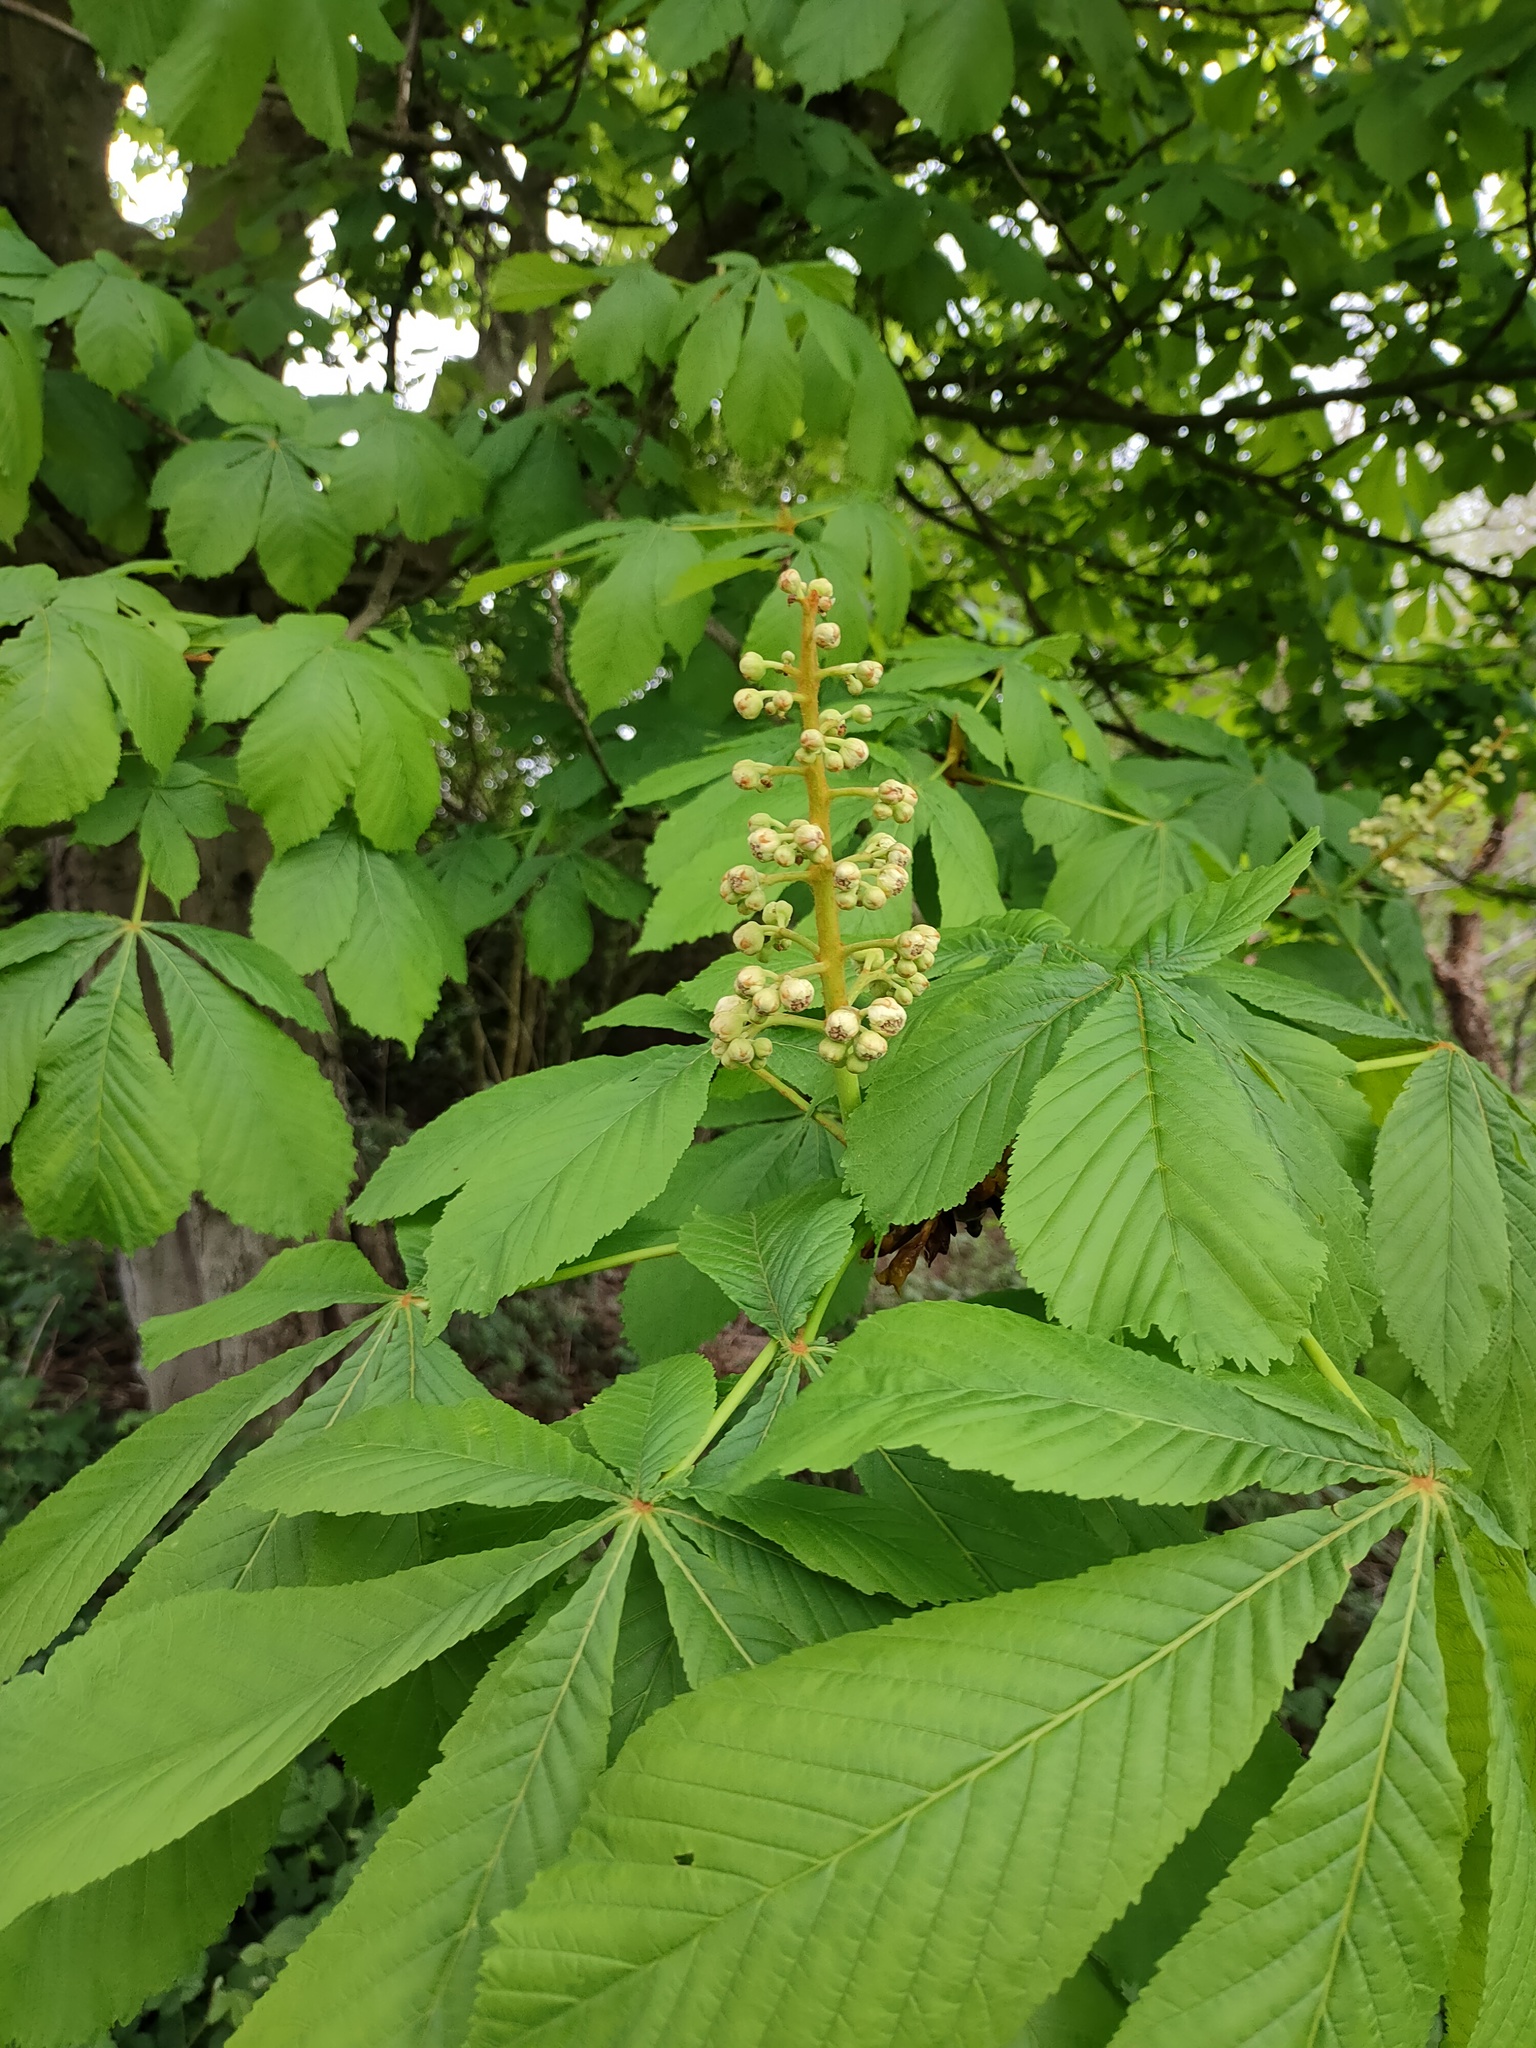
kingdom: Plantae
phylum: Tracheophyta
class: Magnoliopsida
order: Sapindales
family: Sapindaceae
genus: Aesculus
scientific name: Aesculus hippocastanum
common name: Horse-chestnut
